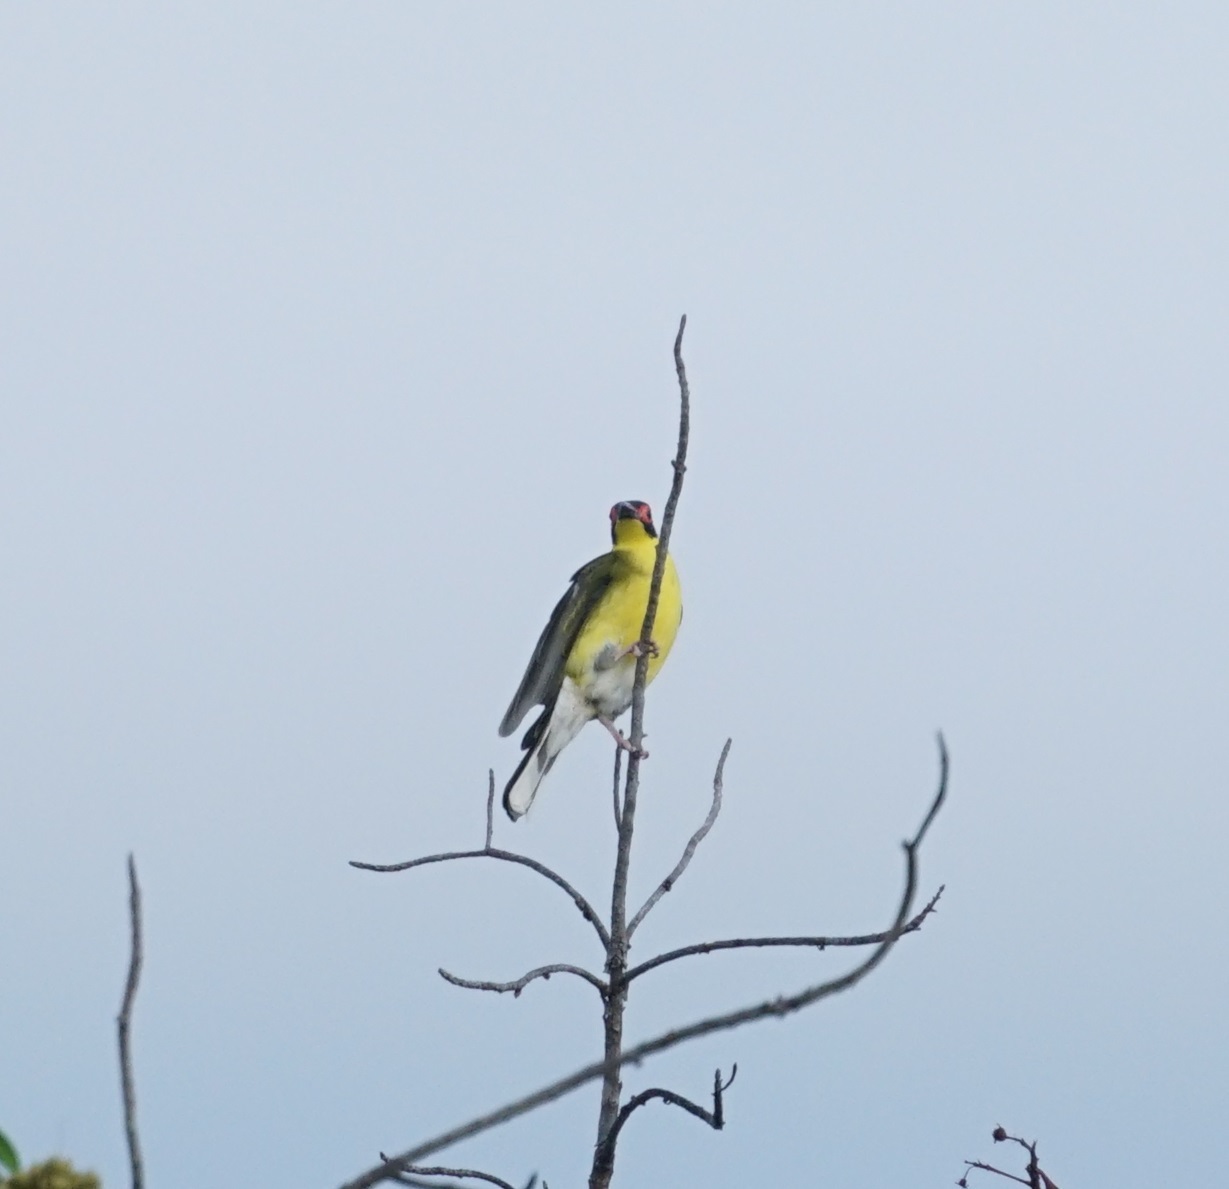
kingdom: Animalia
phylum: Chordata
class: Aves
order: Passeriformes
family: Oriolidae
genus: Sphecotheres
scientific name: Sphecotheres vieilloti
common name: Australasian figbird
